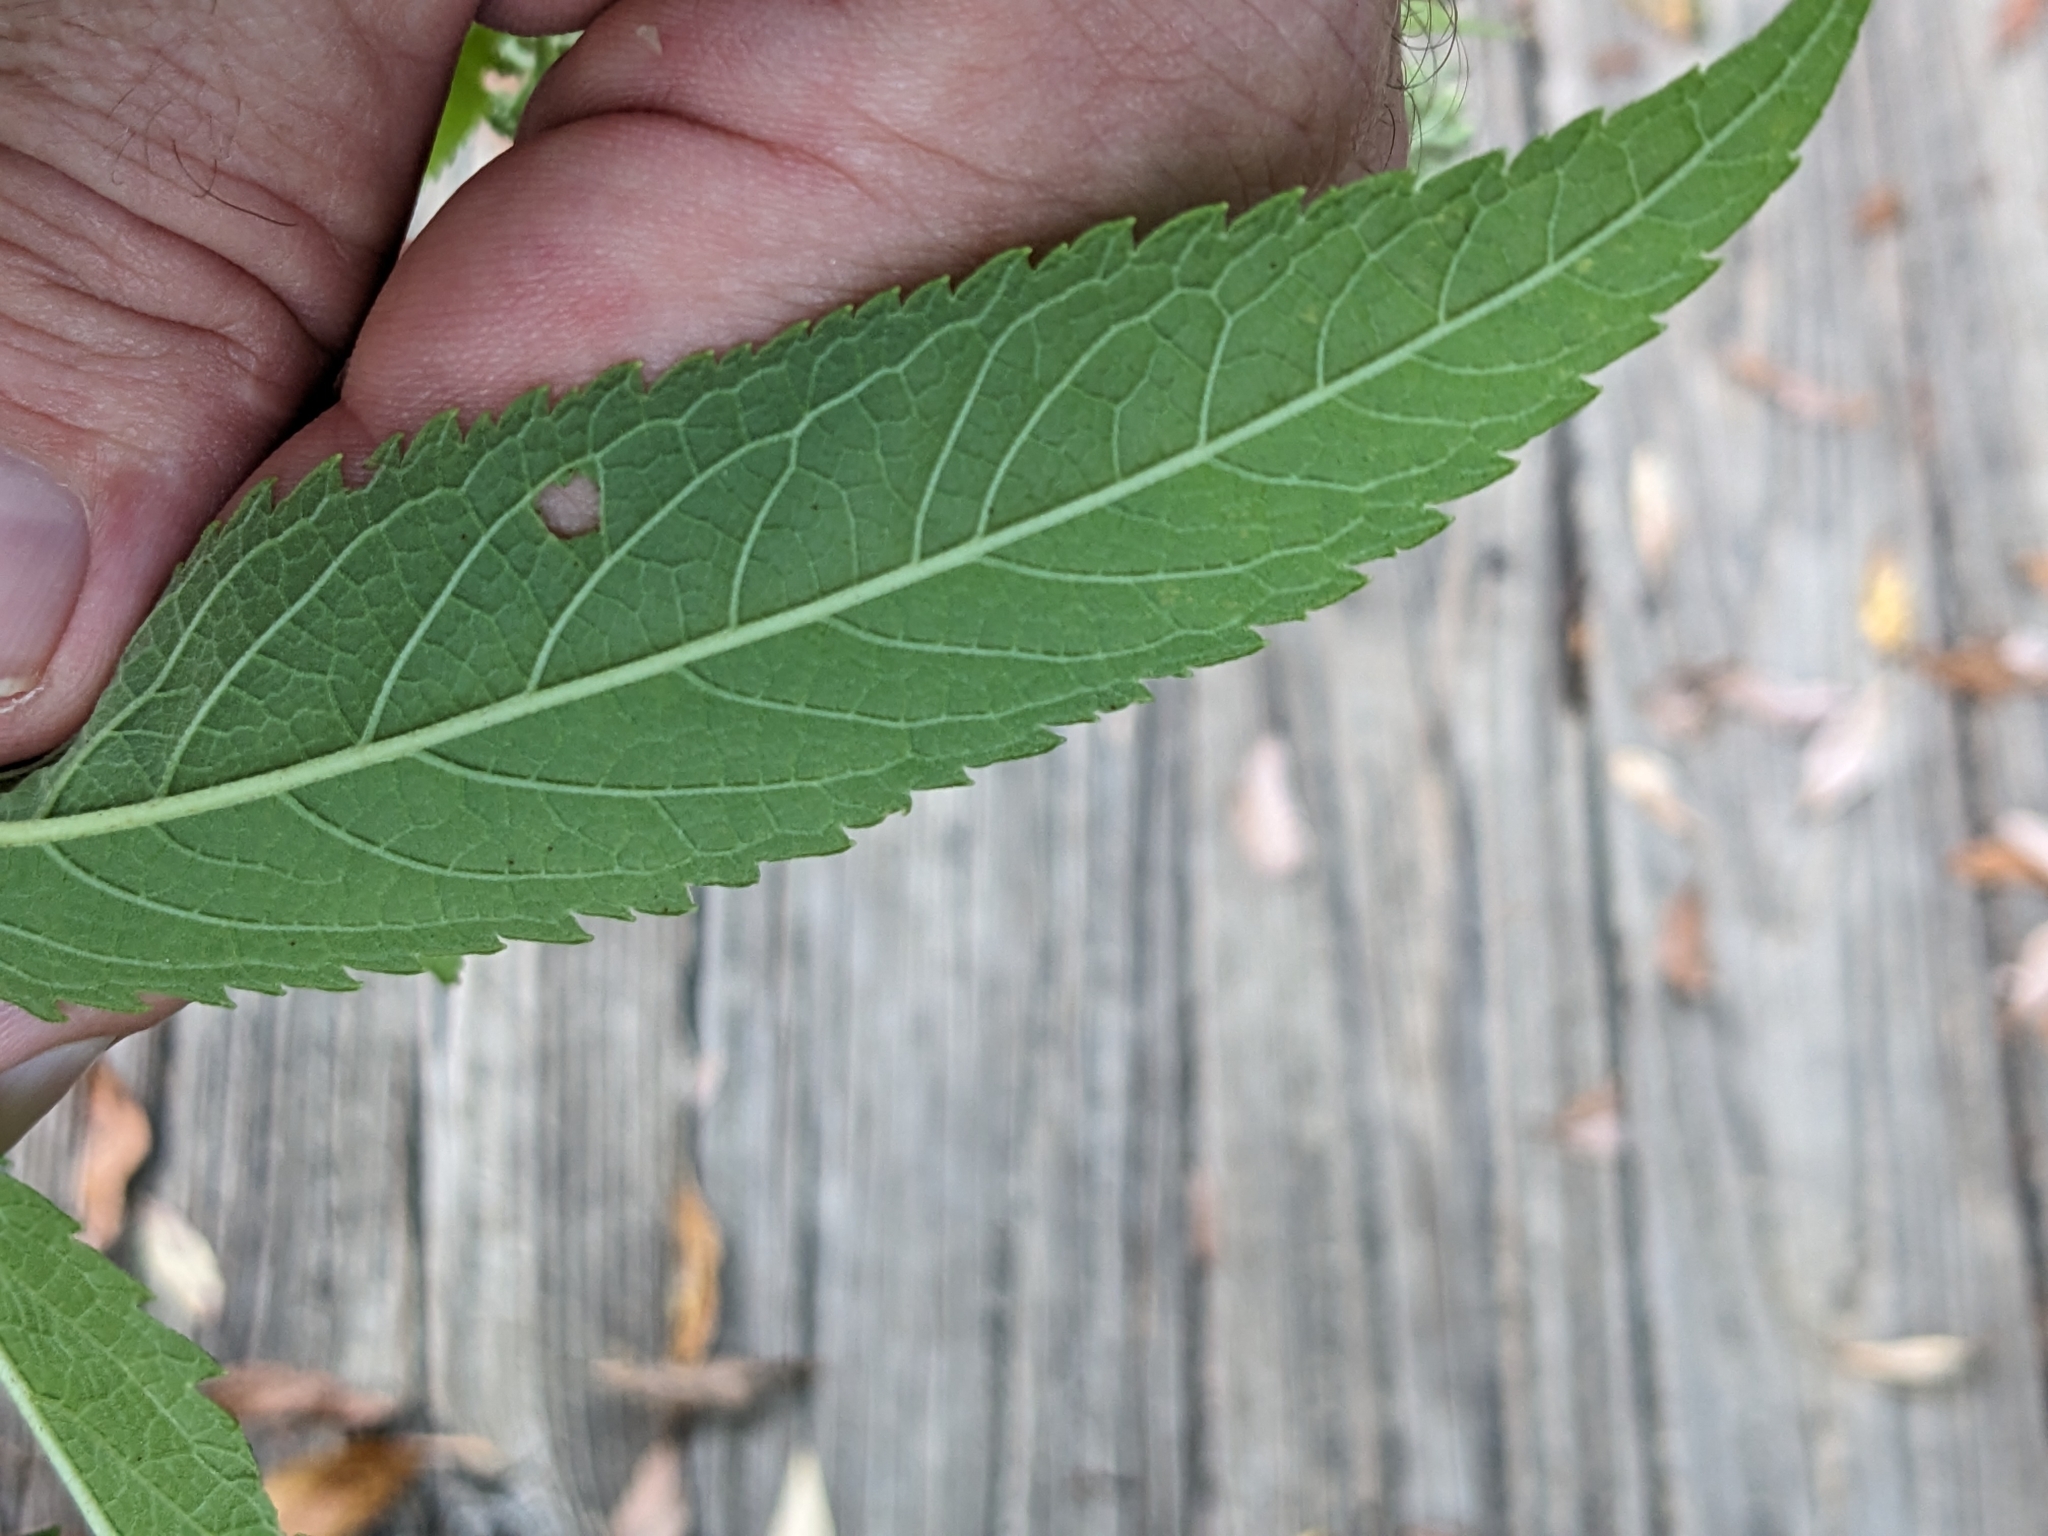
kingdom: Plantae
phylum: Tracheophyta
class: Magnoliopsida
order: Asterales
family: Asteraceae
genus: Eutrochium
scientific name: Eutrochium maculatum
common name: Spotted joe pye weed
